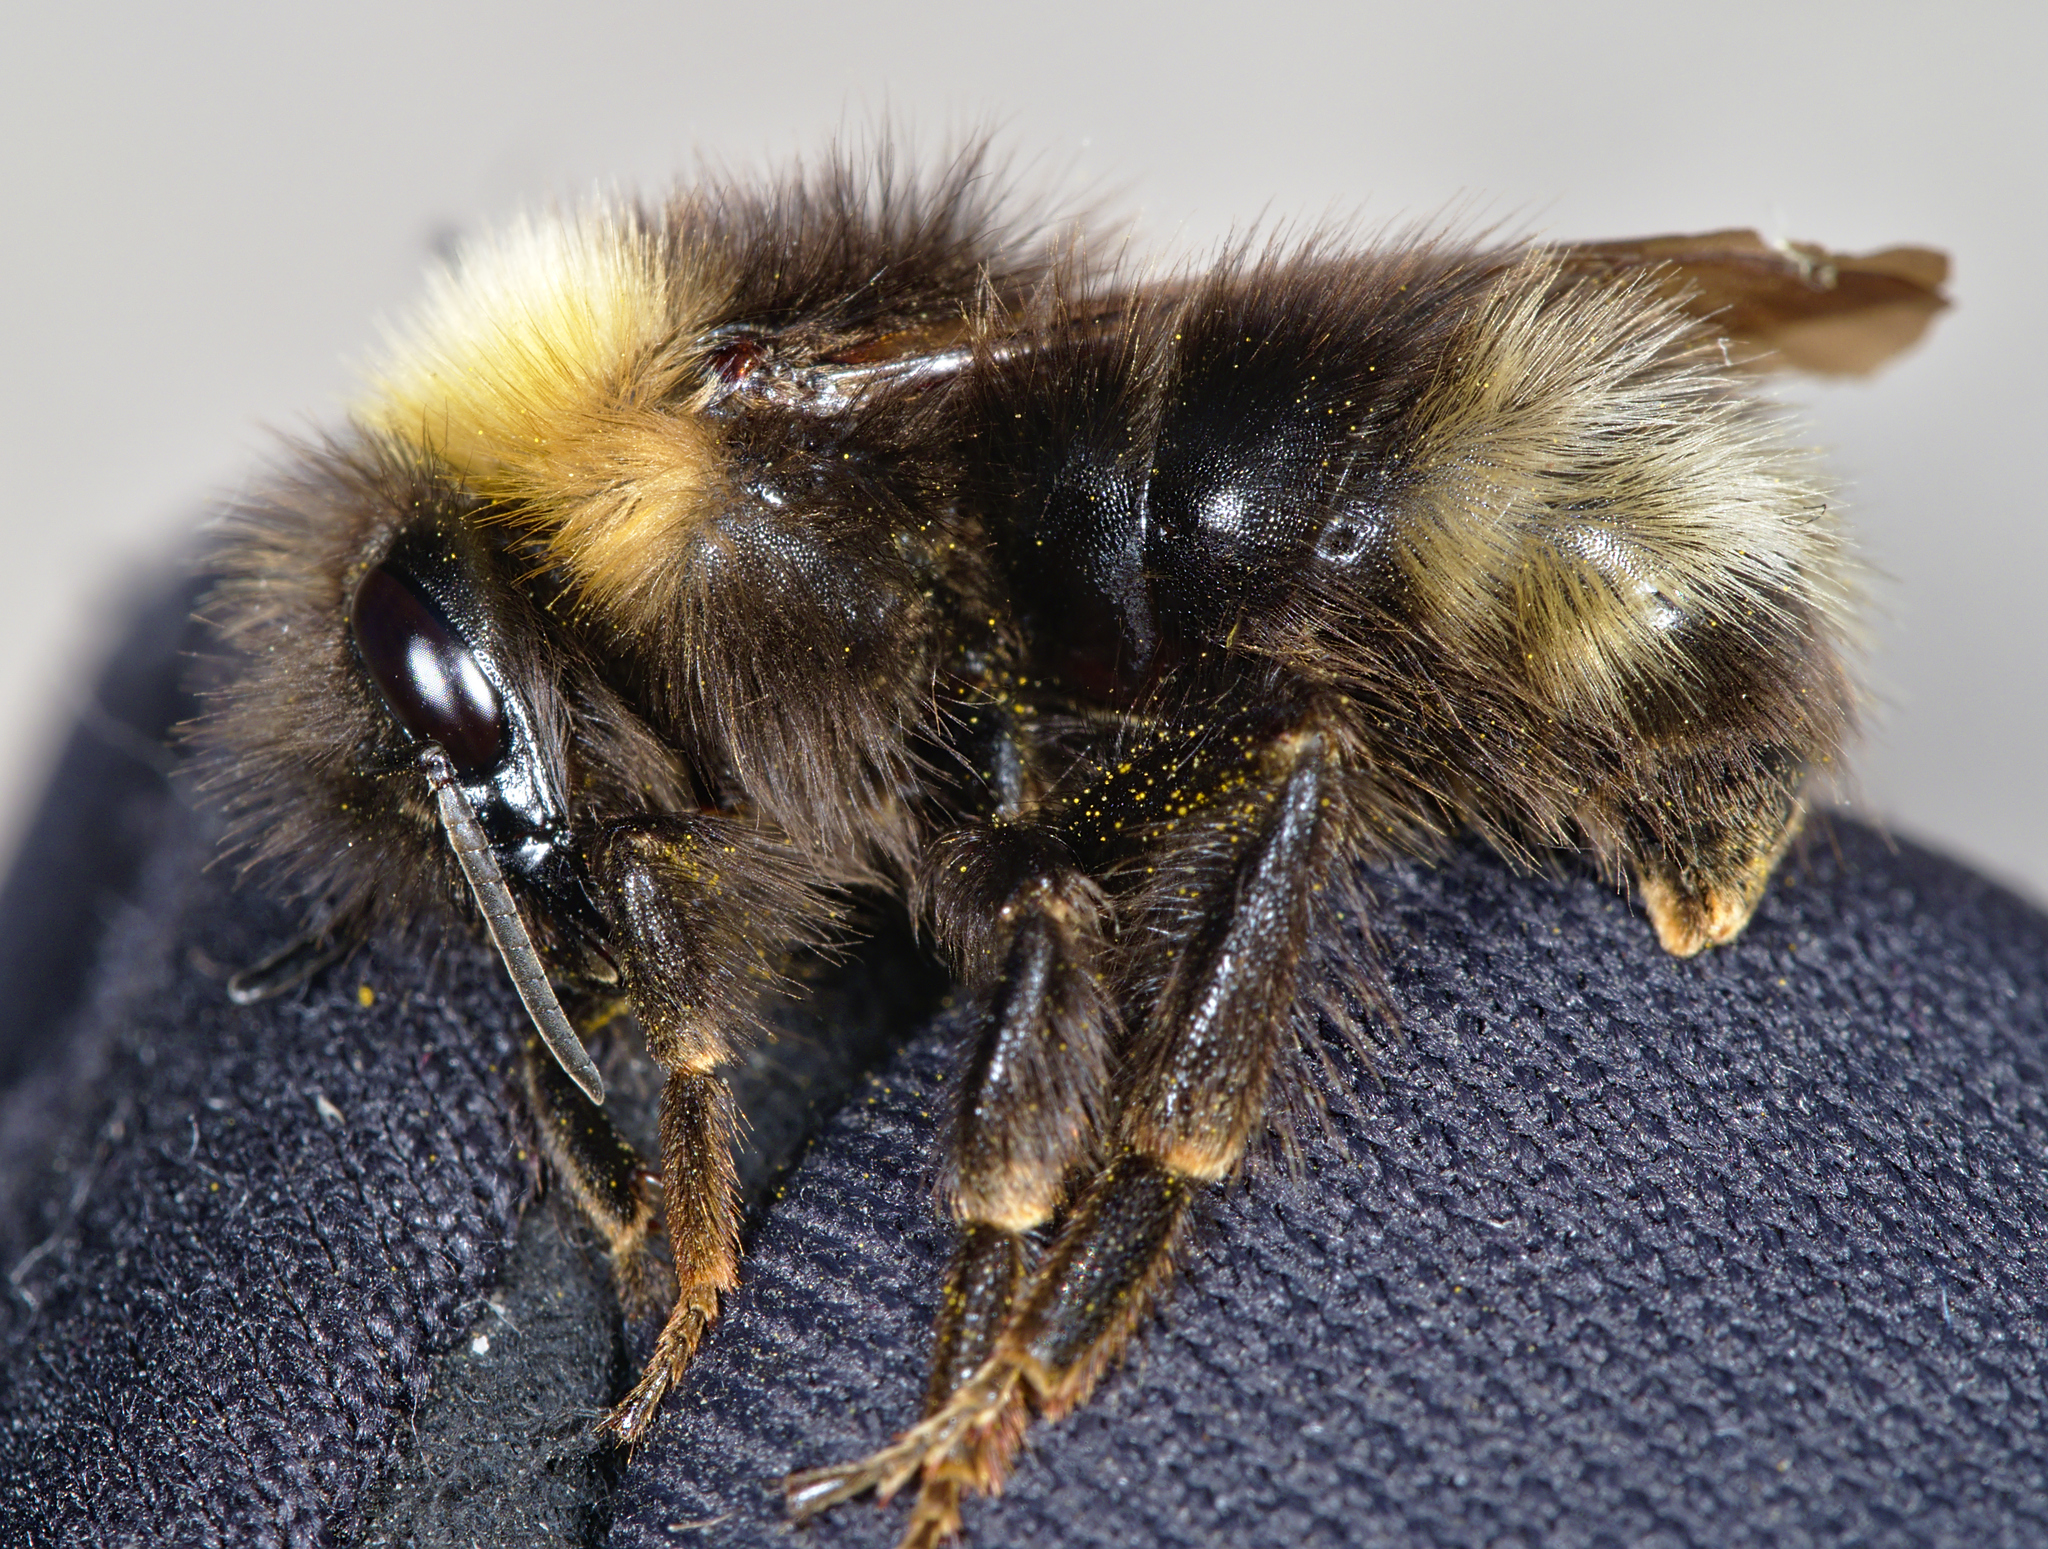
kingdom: Animalia
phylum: Arthropoda
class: Insecta
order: Hymenoptera
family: Apidae
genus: Bombus
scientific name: Bombus sylvestris
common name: Forest cuckoo bee
